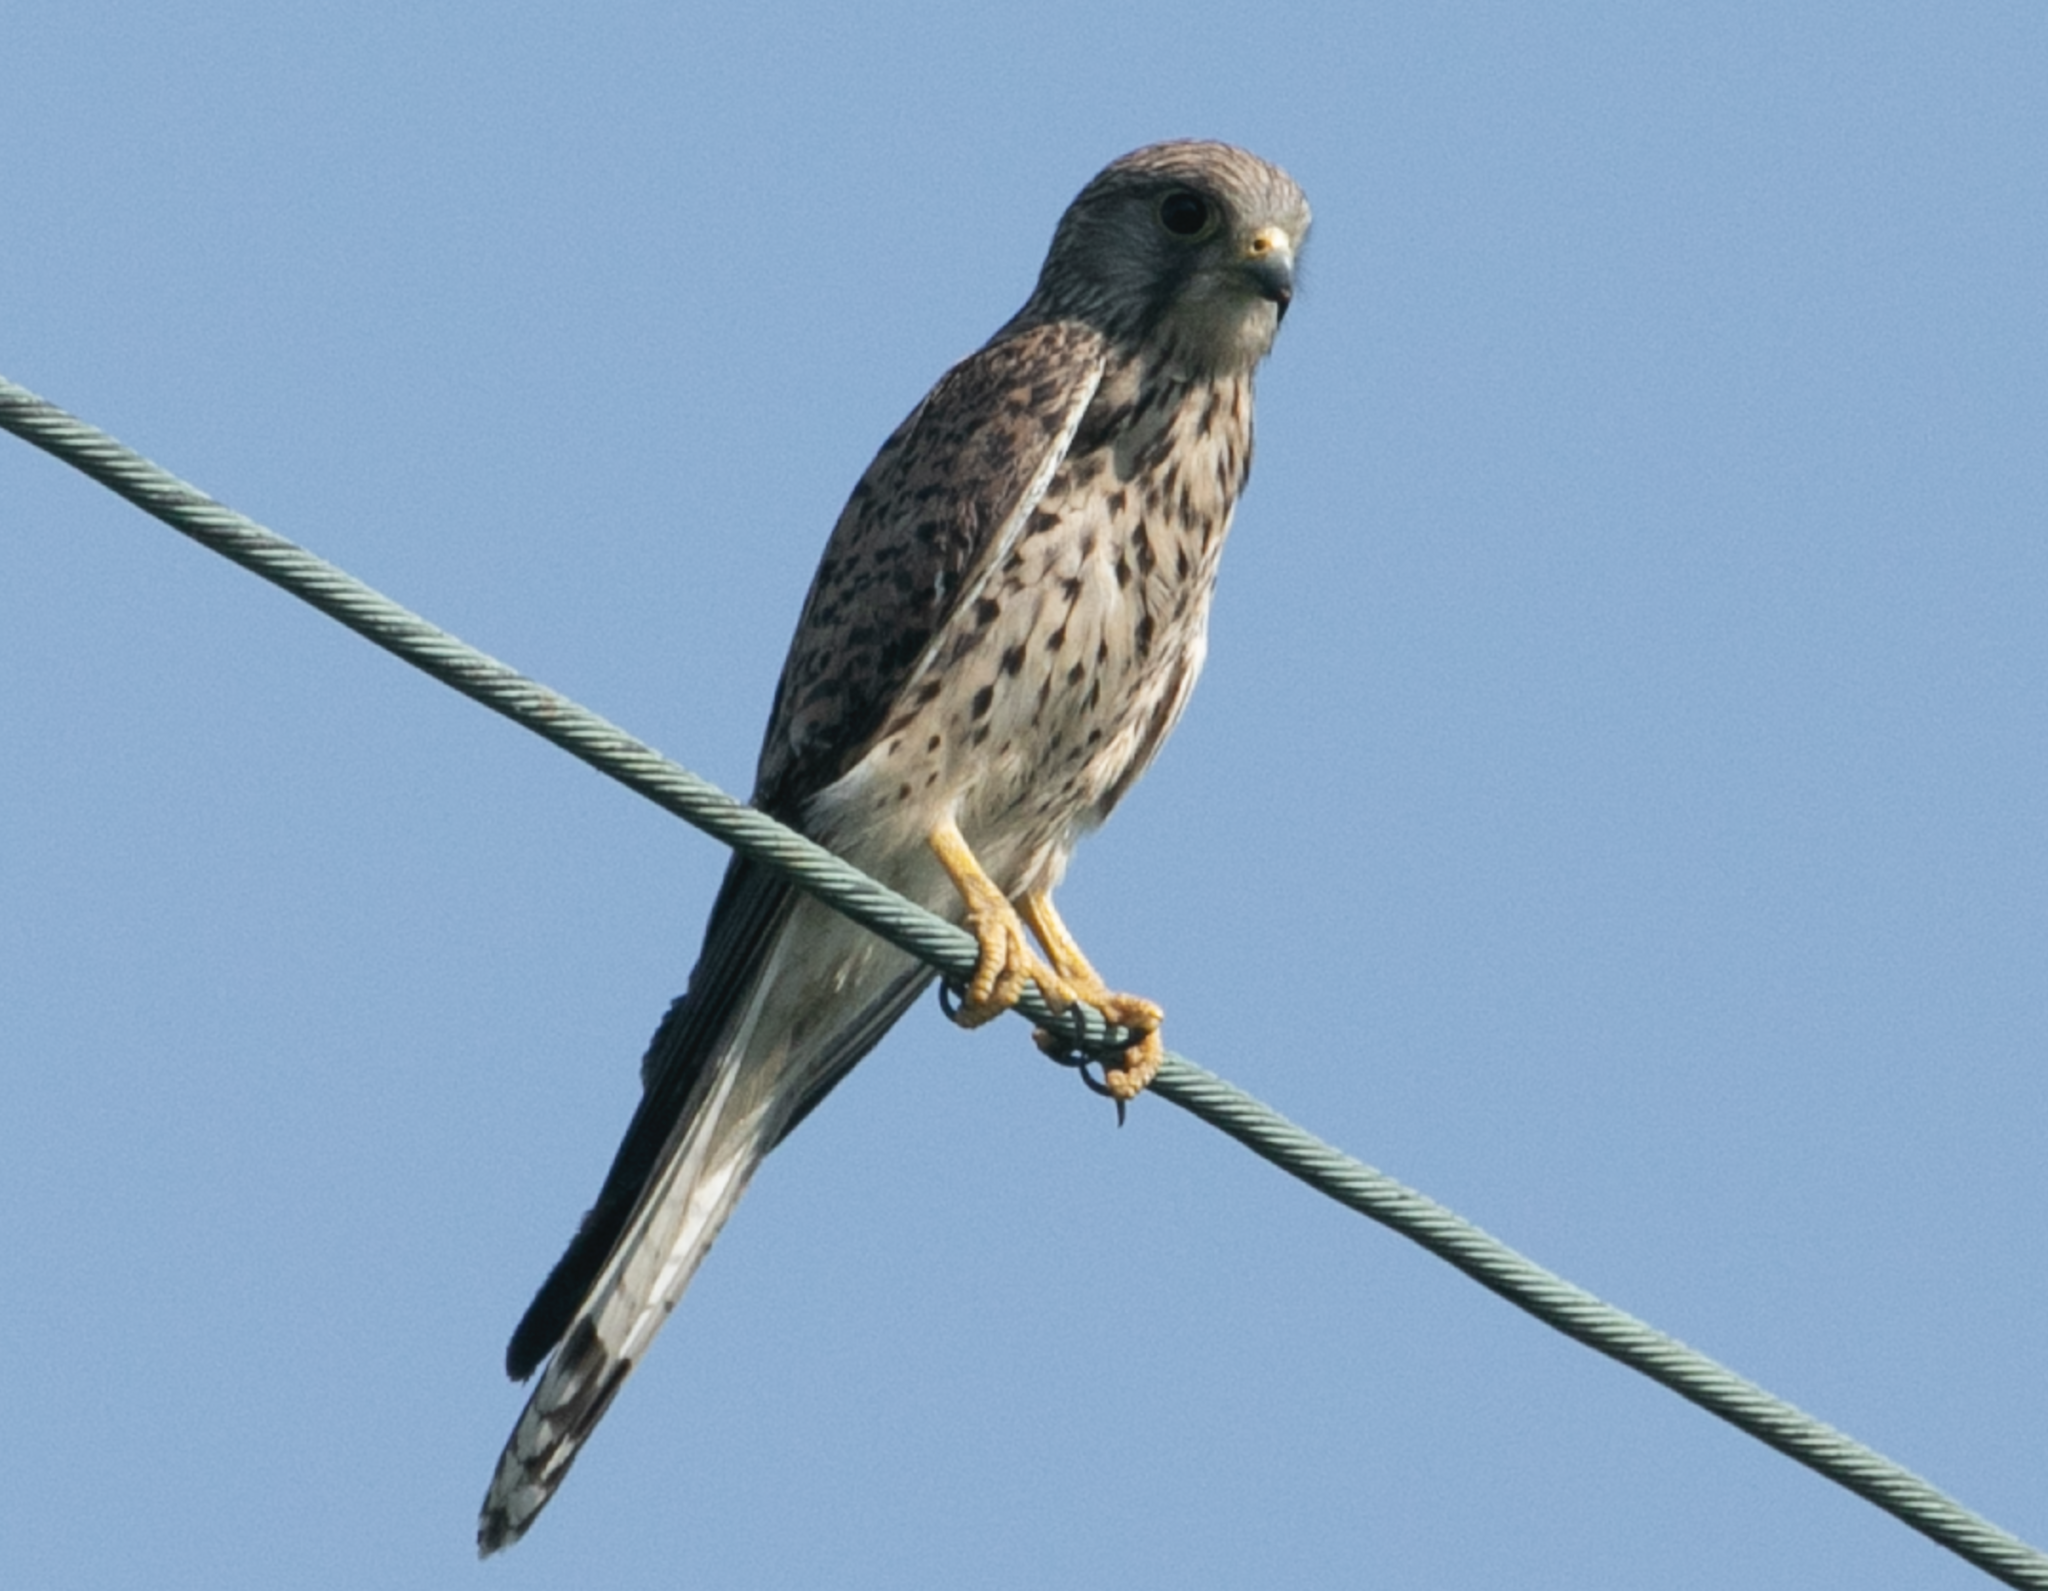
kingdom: Animalia
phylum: Chordata
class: Aves
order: Falconiformes
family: Falconidae
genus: Falco
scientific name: Falco tinnunculus
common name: Common kestrel
